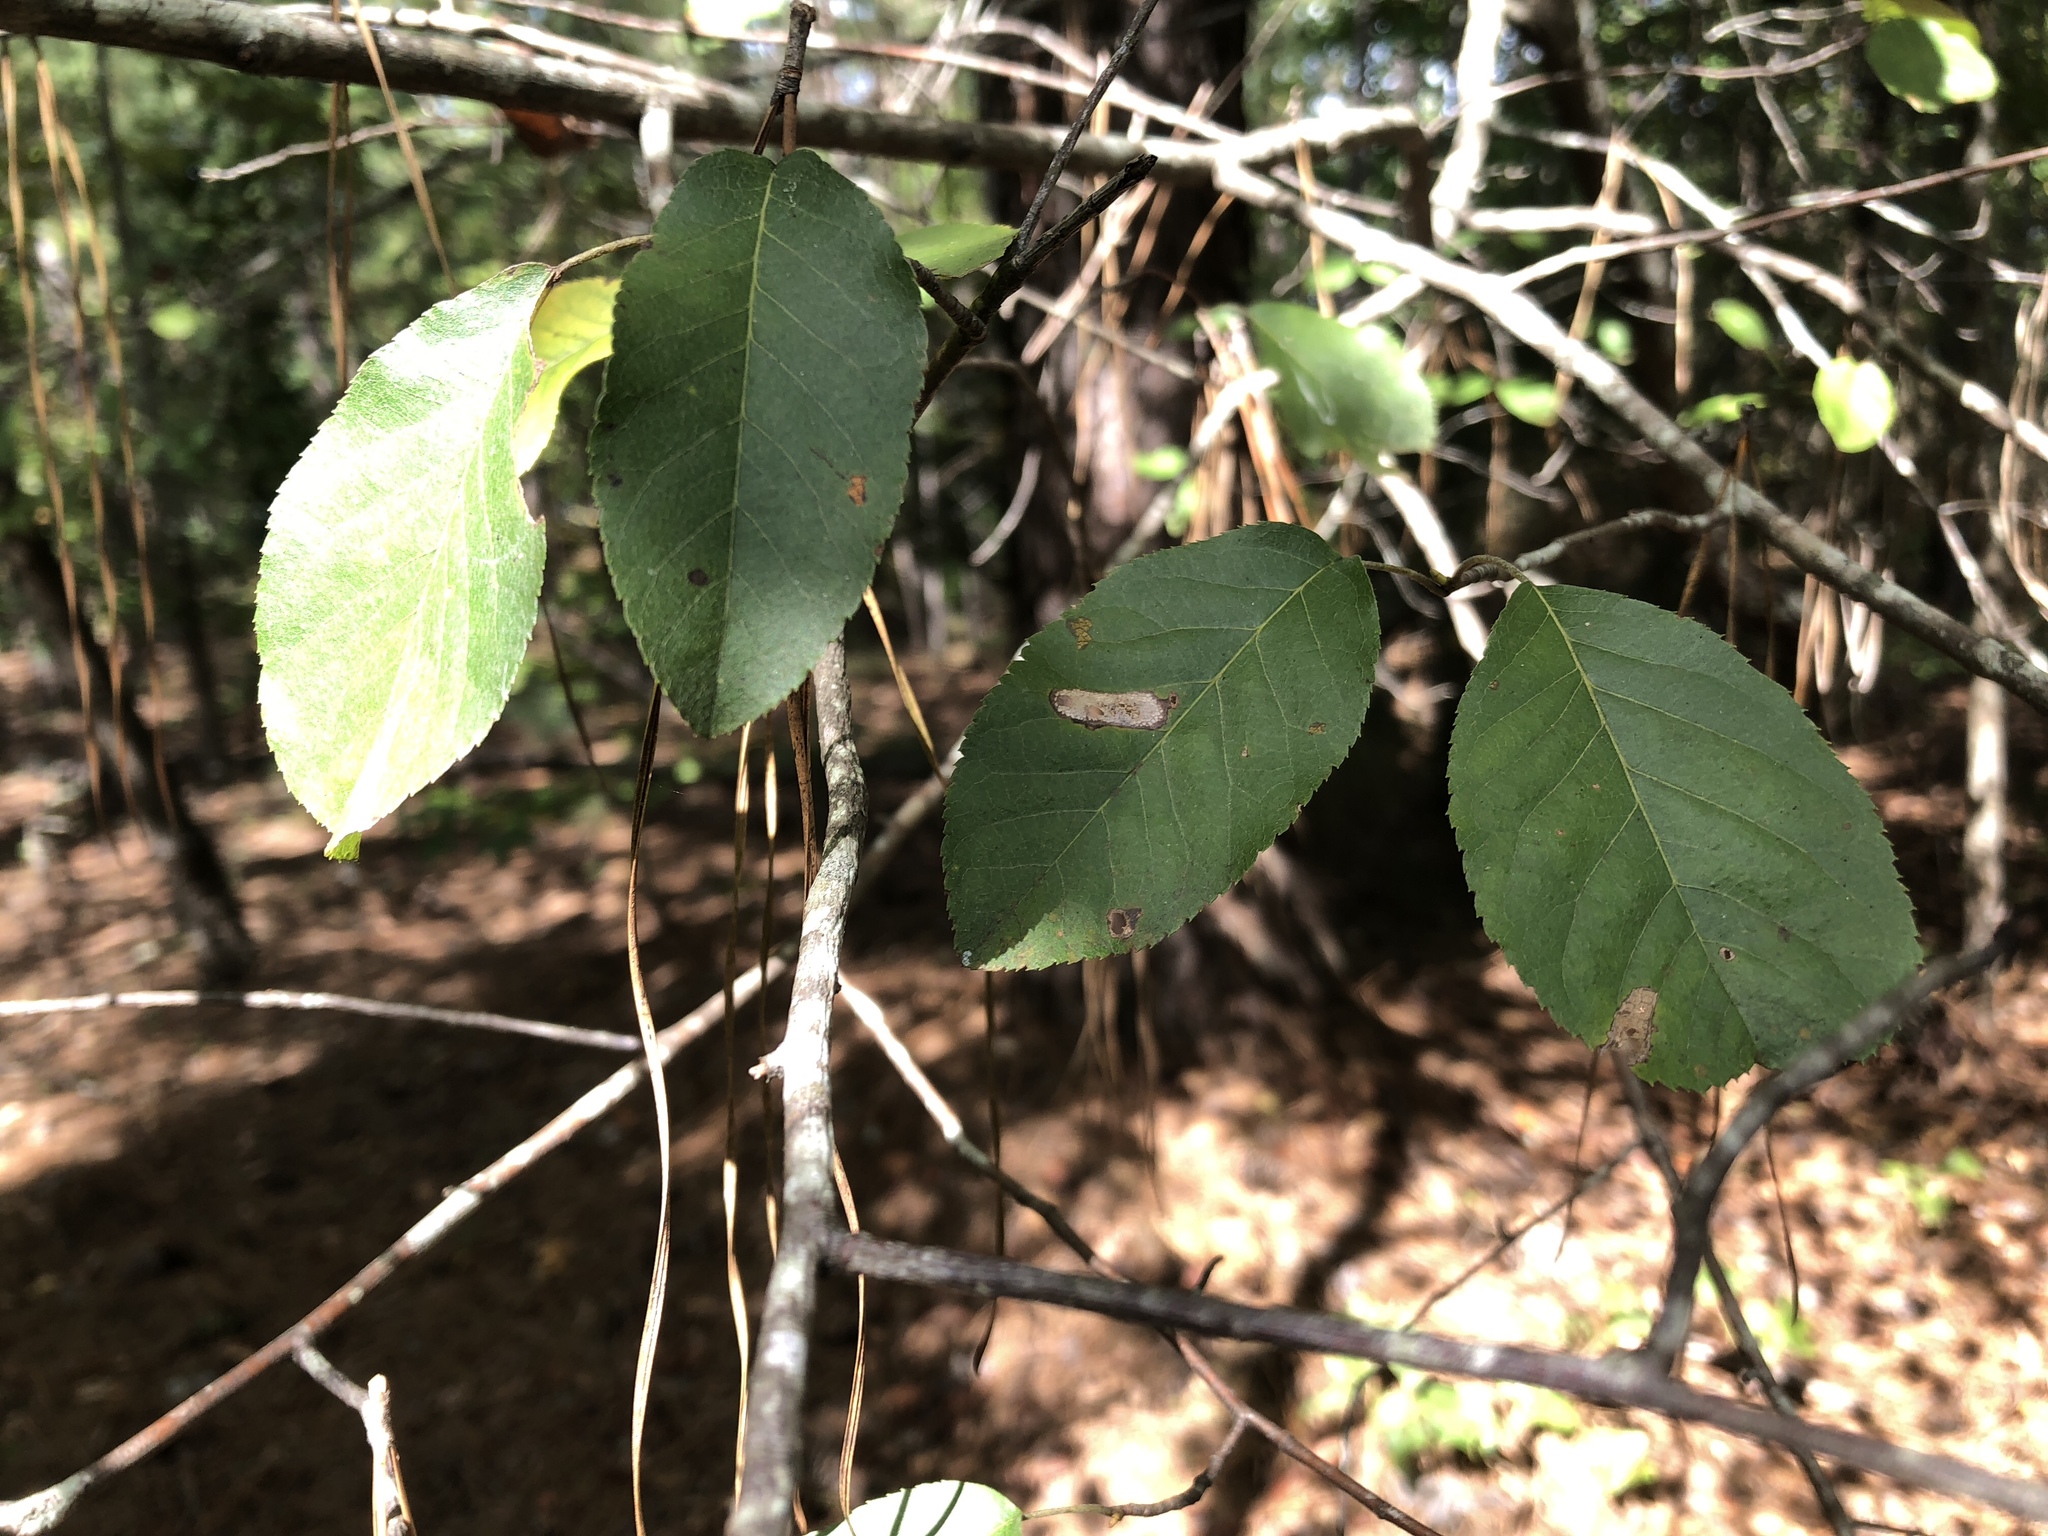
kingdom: Plantae
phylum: Tracheophyta
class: Magnoliopsida
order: Rosales
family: Rosaceae
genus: Amelanchier
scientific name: Amelanchier arborea
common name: Downy serviceberry
